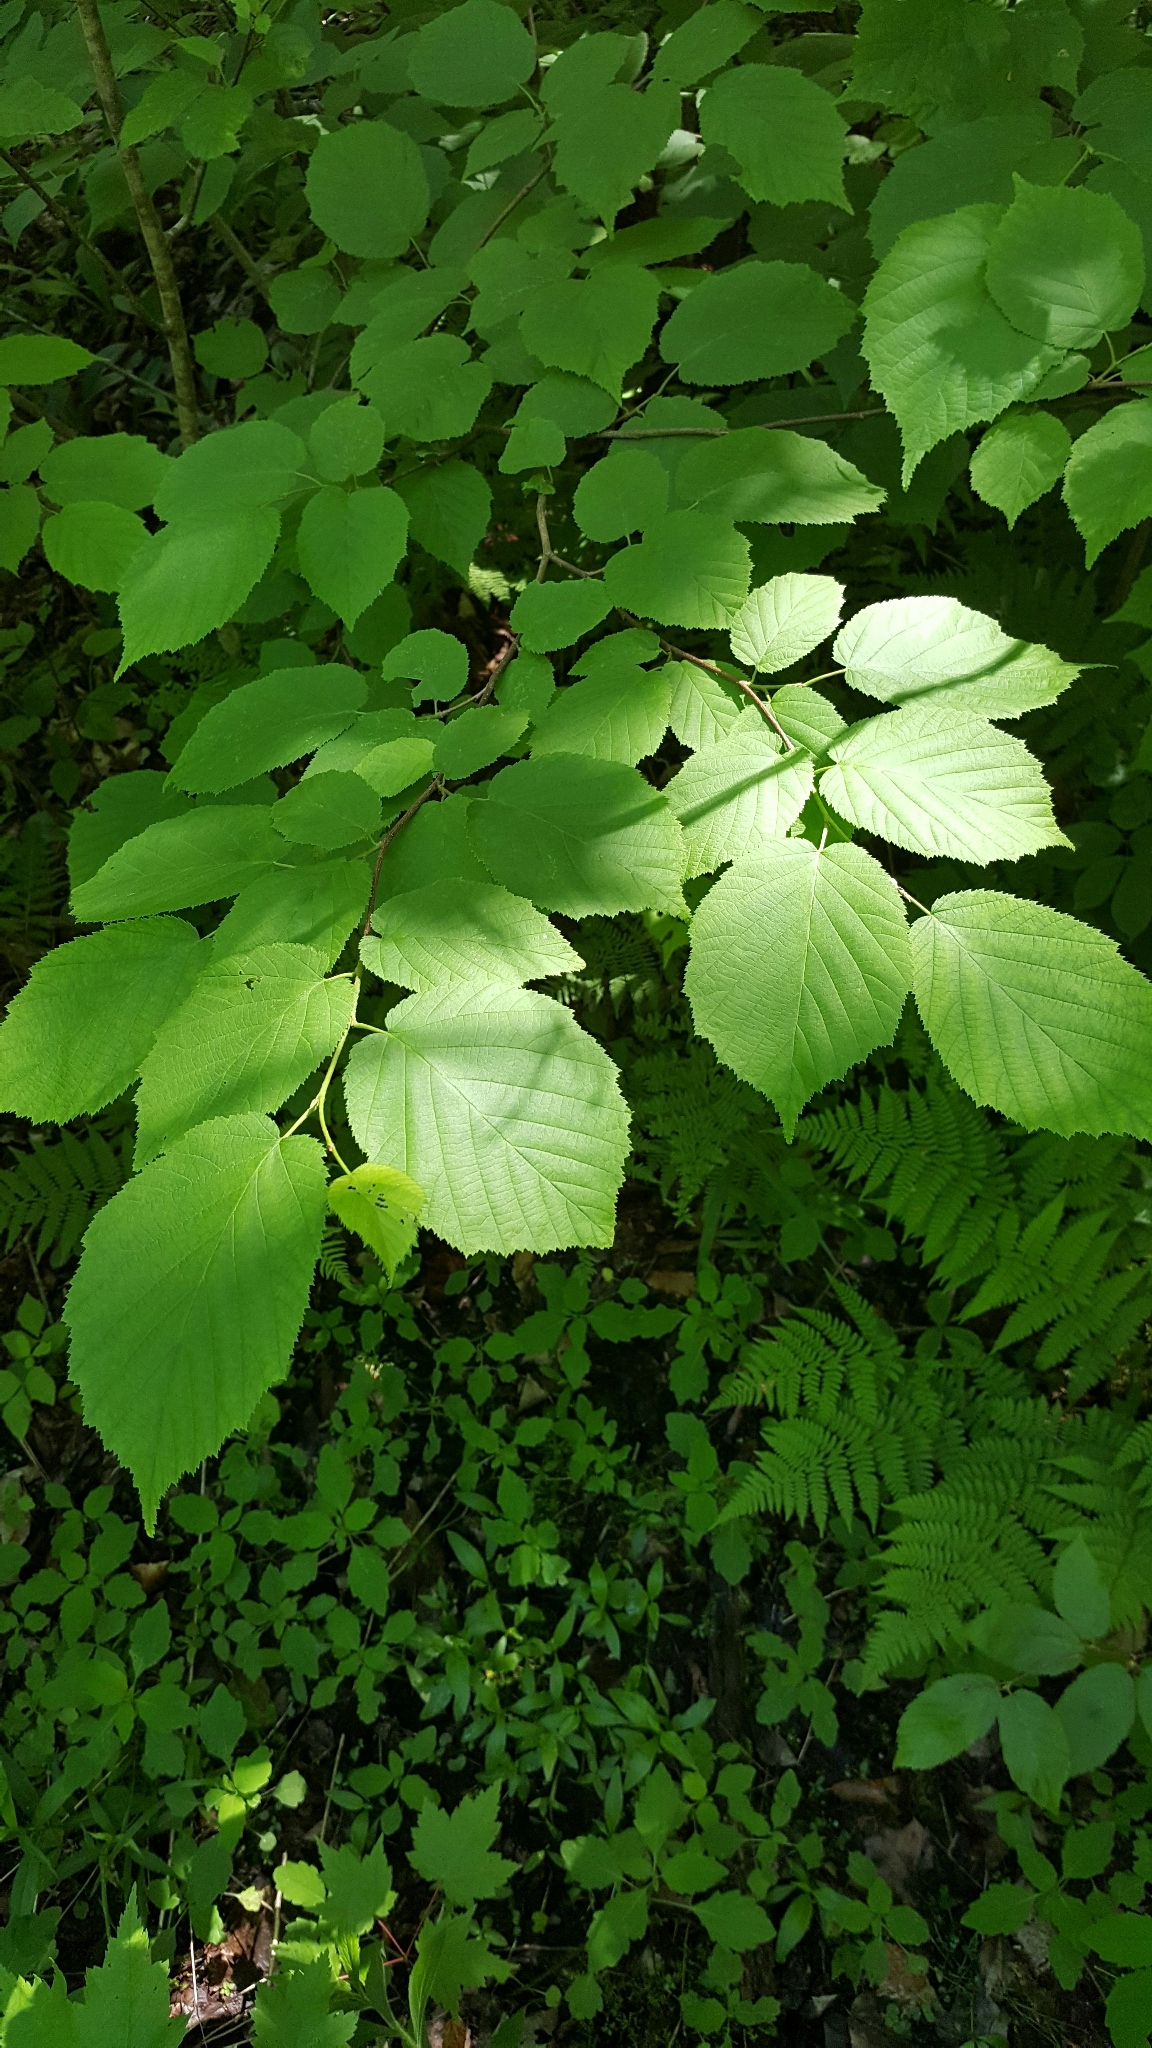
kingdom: Plantae
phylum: Tracheophyta
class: Magnoliopsida
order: Fagales
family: Betulaceae
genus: Corylus
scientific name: Corylus cornuta
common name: Beaked hazel
